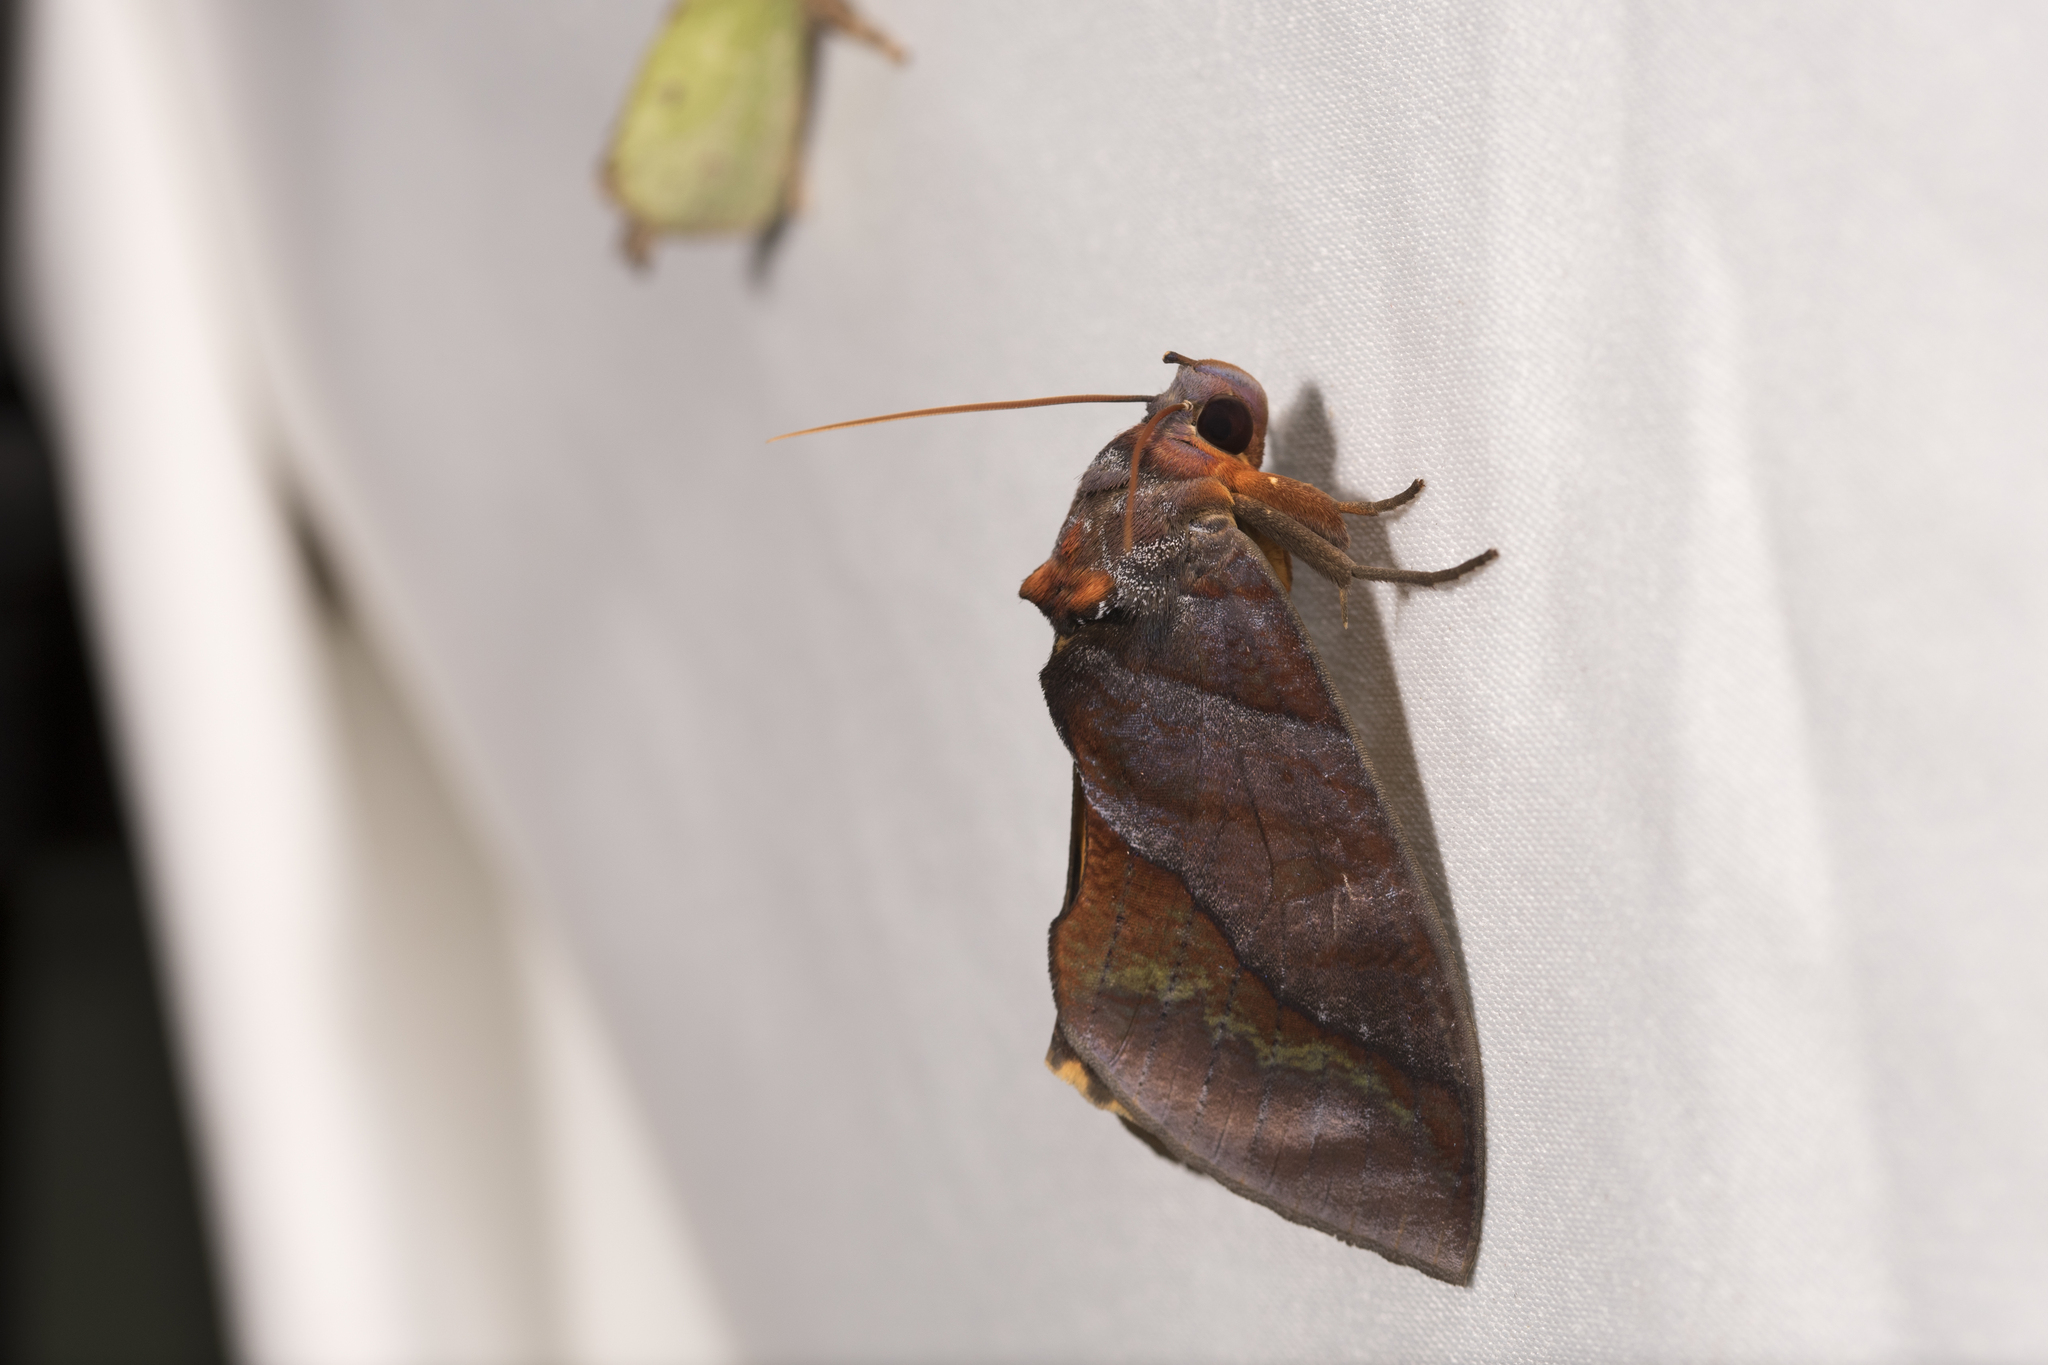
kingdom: Animalia
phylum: Arthropoda
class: Insecta
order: Lepidoptera
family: Erebidae
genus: Eudocima
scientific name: Eudocima homaena
